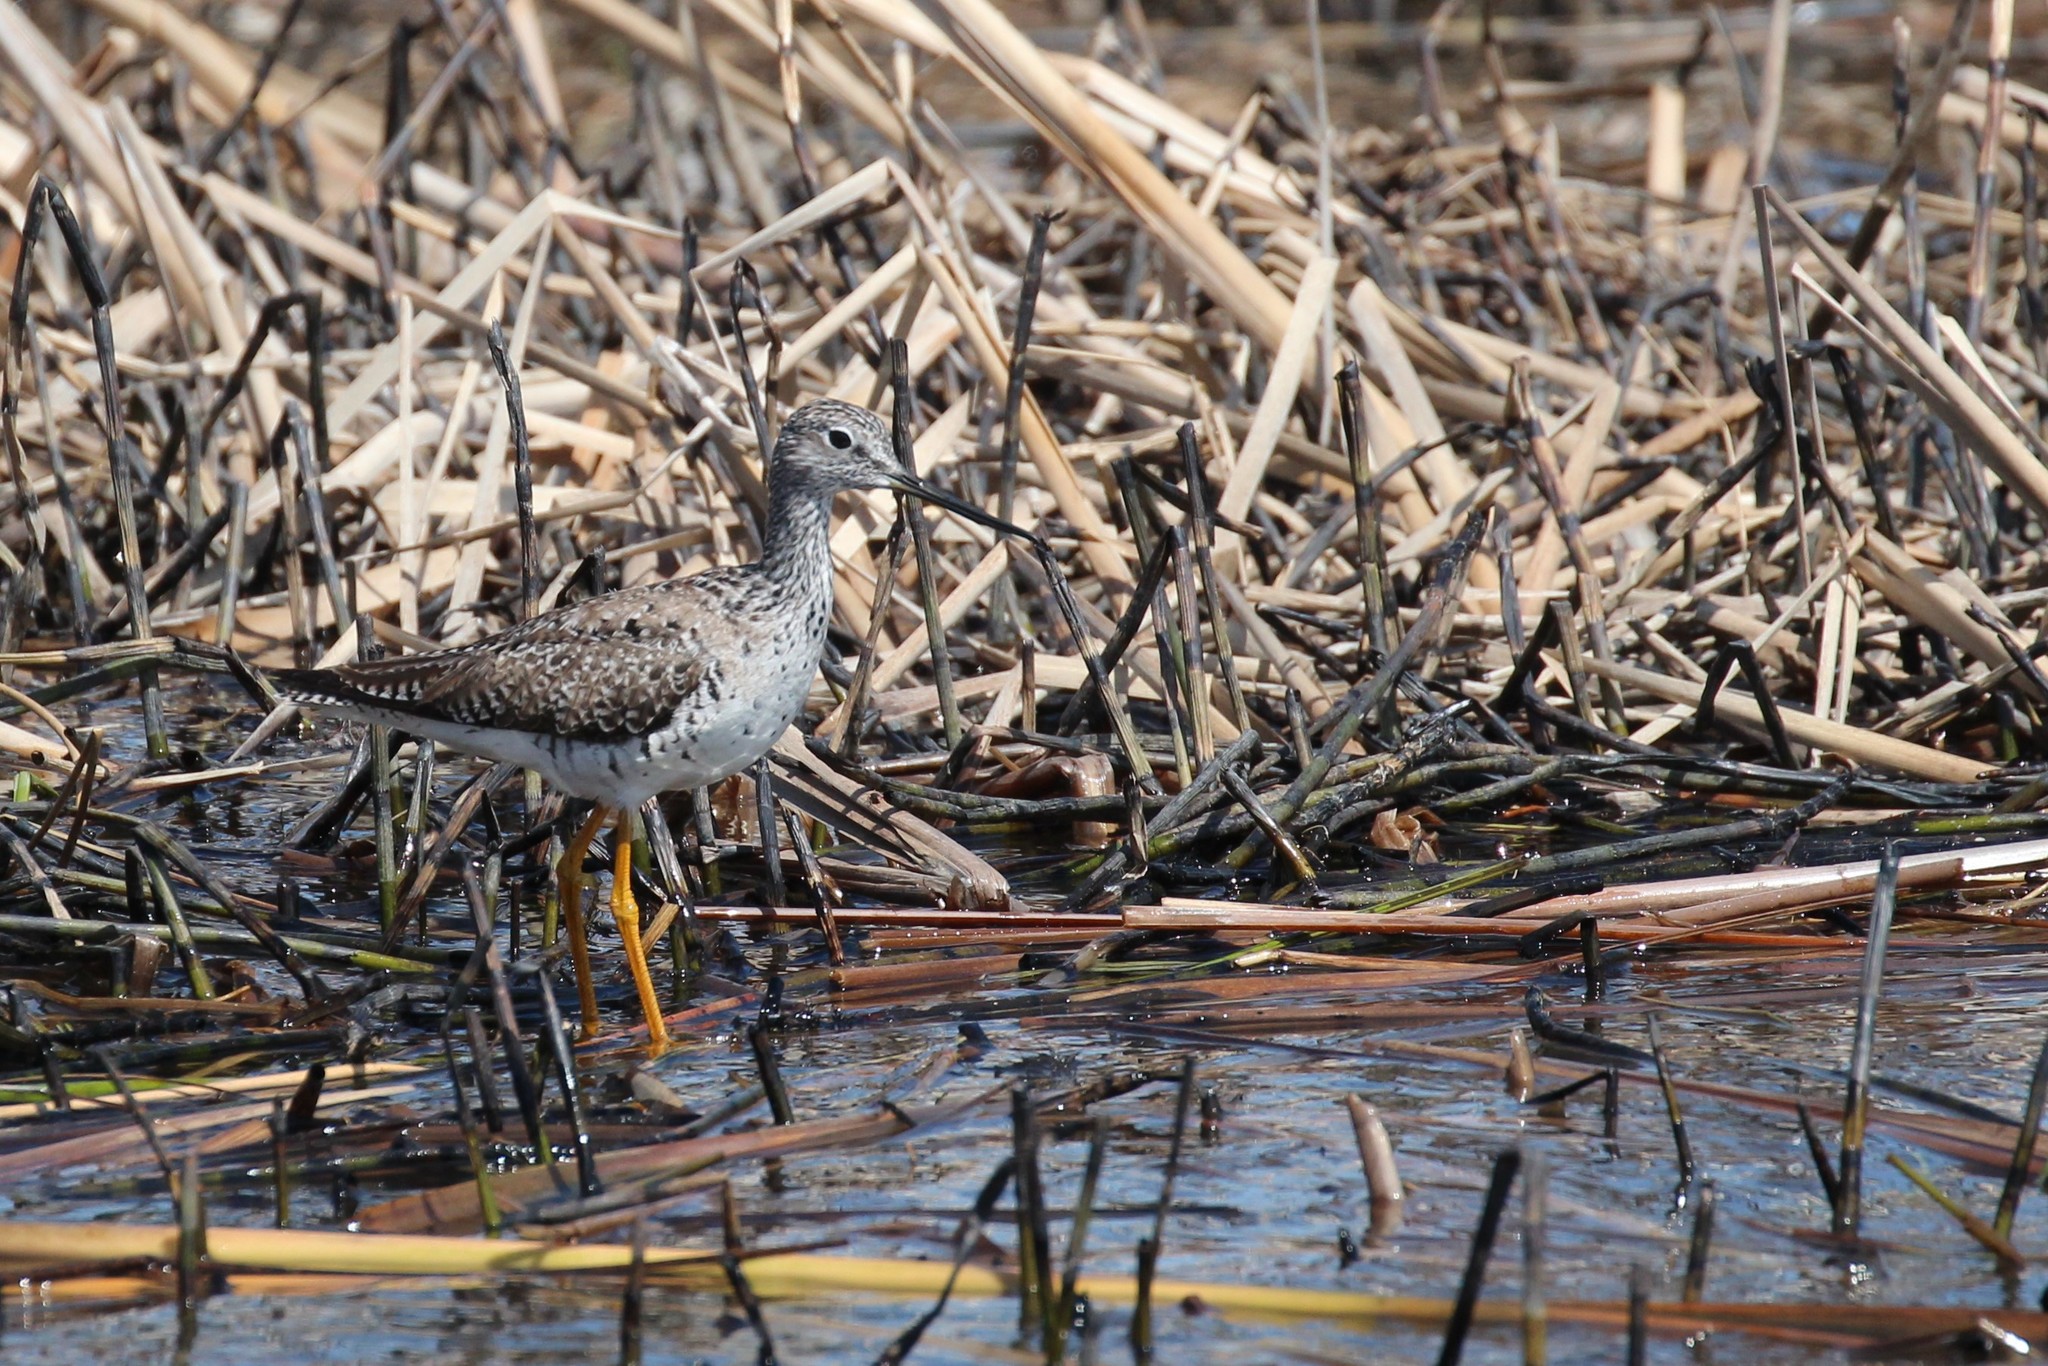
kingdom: Animalia
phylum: Chordata
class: Aves
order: Charadriiformes
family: Scolopacidae
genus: Tringa
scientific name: Tringa melanoleuca
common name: Greater yellowlegs
